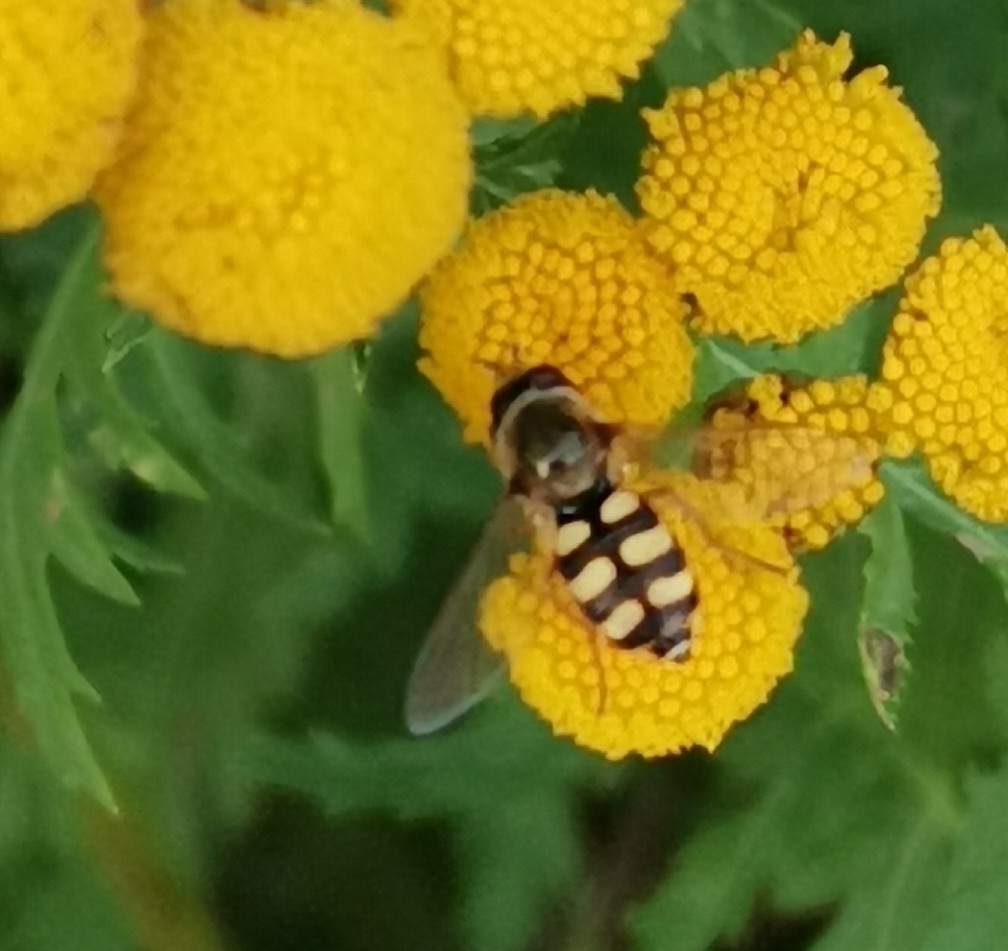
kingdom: Animalia
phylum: Arthropoda
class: Insecta
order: Diptera
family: Syrphidae
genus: Eupeodes
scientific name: Eupeodes corollae
